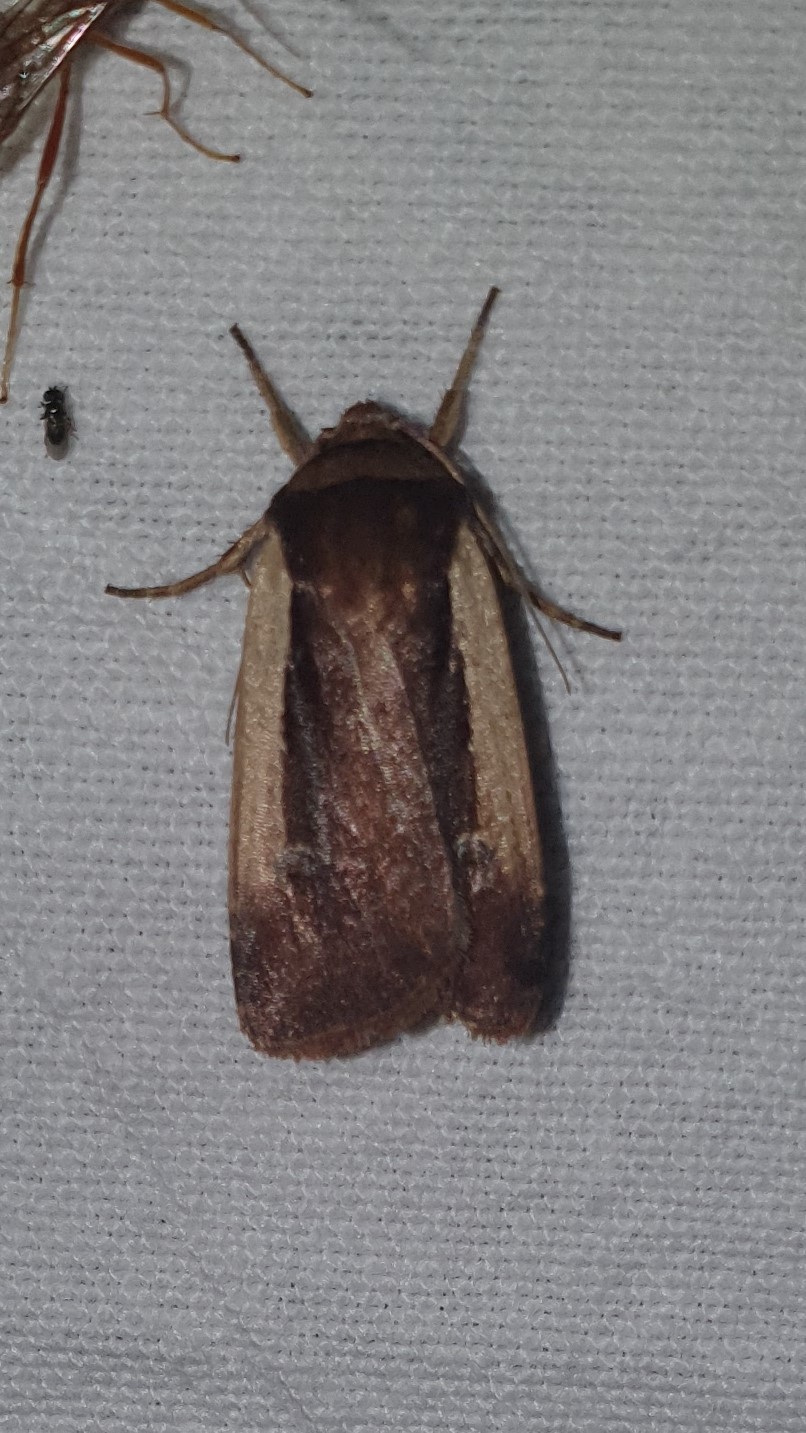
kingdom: Animalia
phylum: Arthropoda
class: Insecta
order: Lepidoptera
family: Noctuidae
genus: Ochropleura
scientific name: Ochropleura plecta
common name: Flame shoulder
